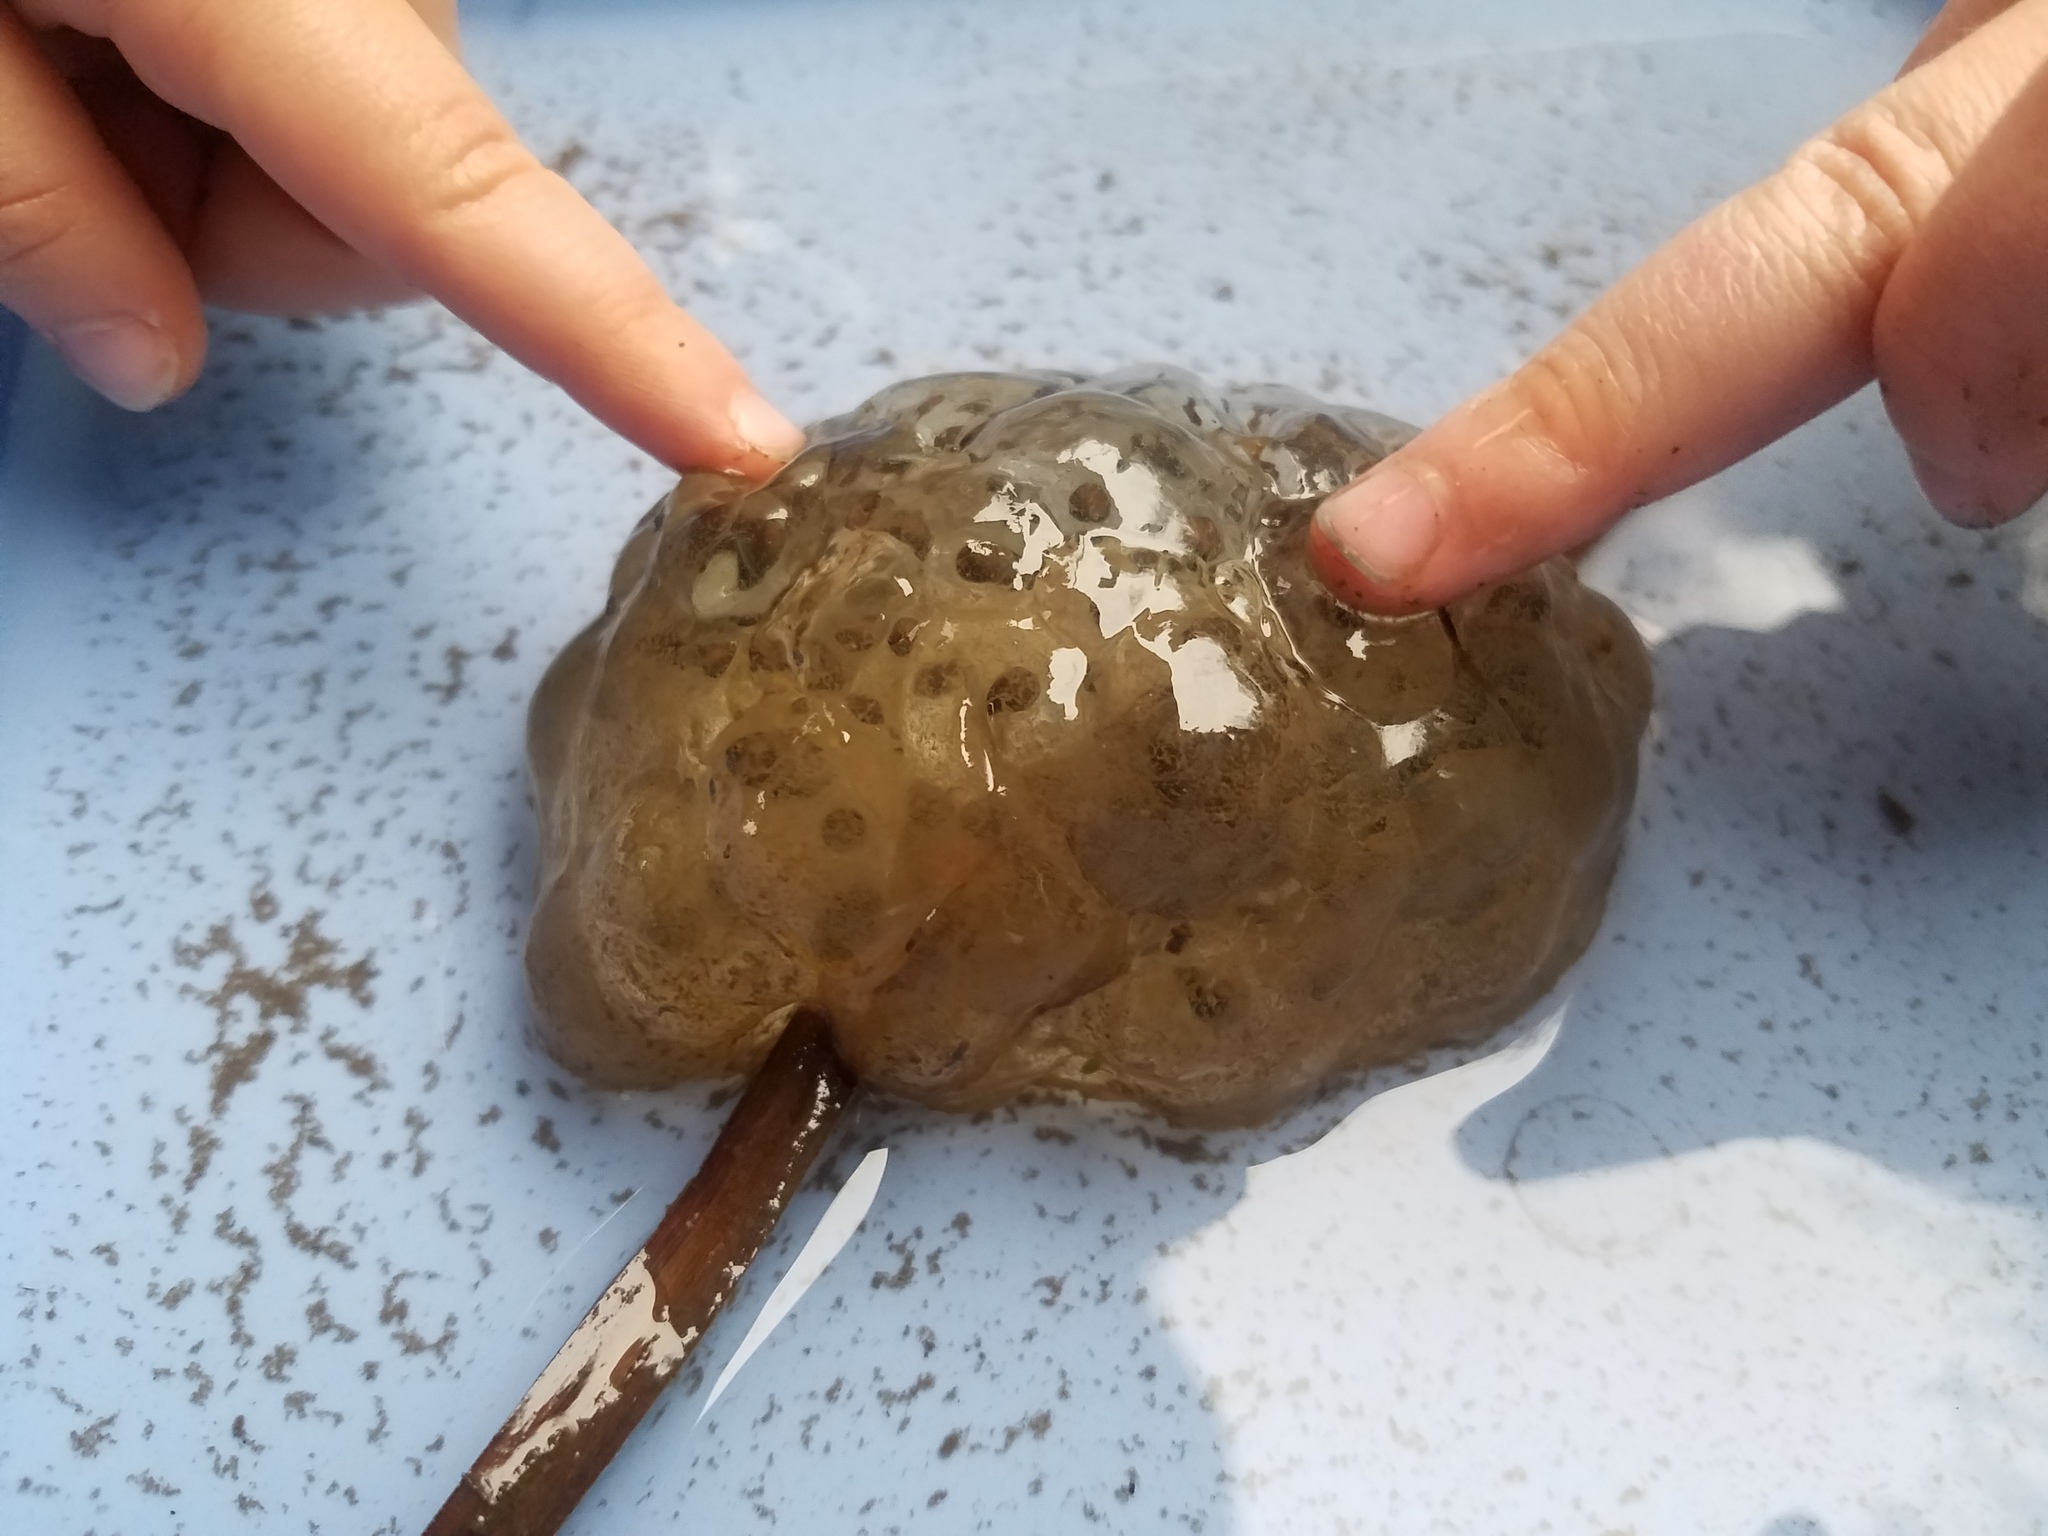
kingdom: Animalia
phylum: Chordata
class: Amphibia
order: Caudata
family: Ambystomatidae
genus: Ambystoma
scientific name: Ambystoma gracile
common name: Northwestern salamander
